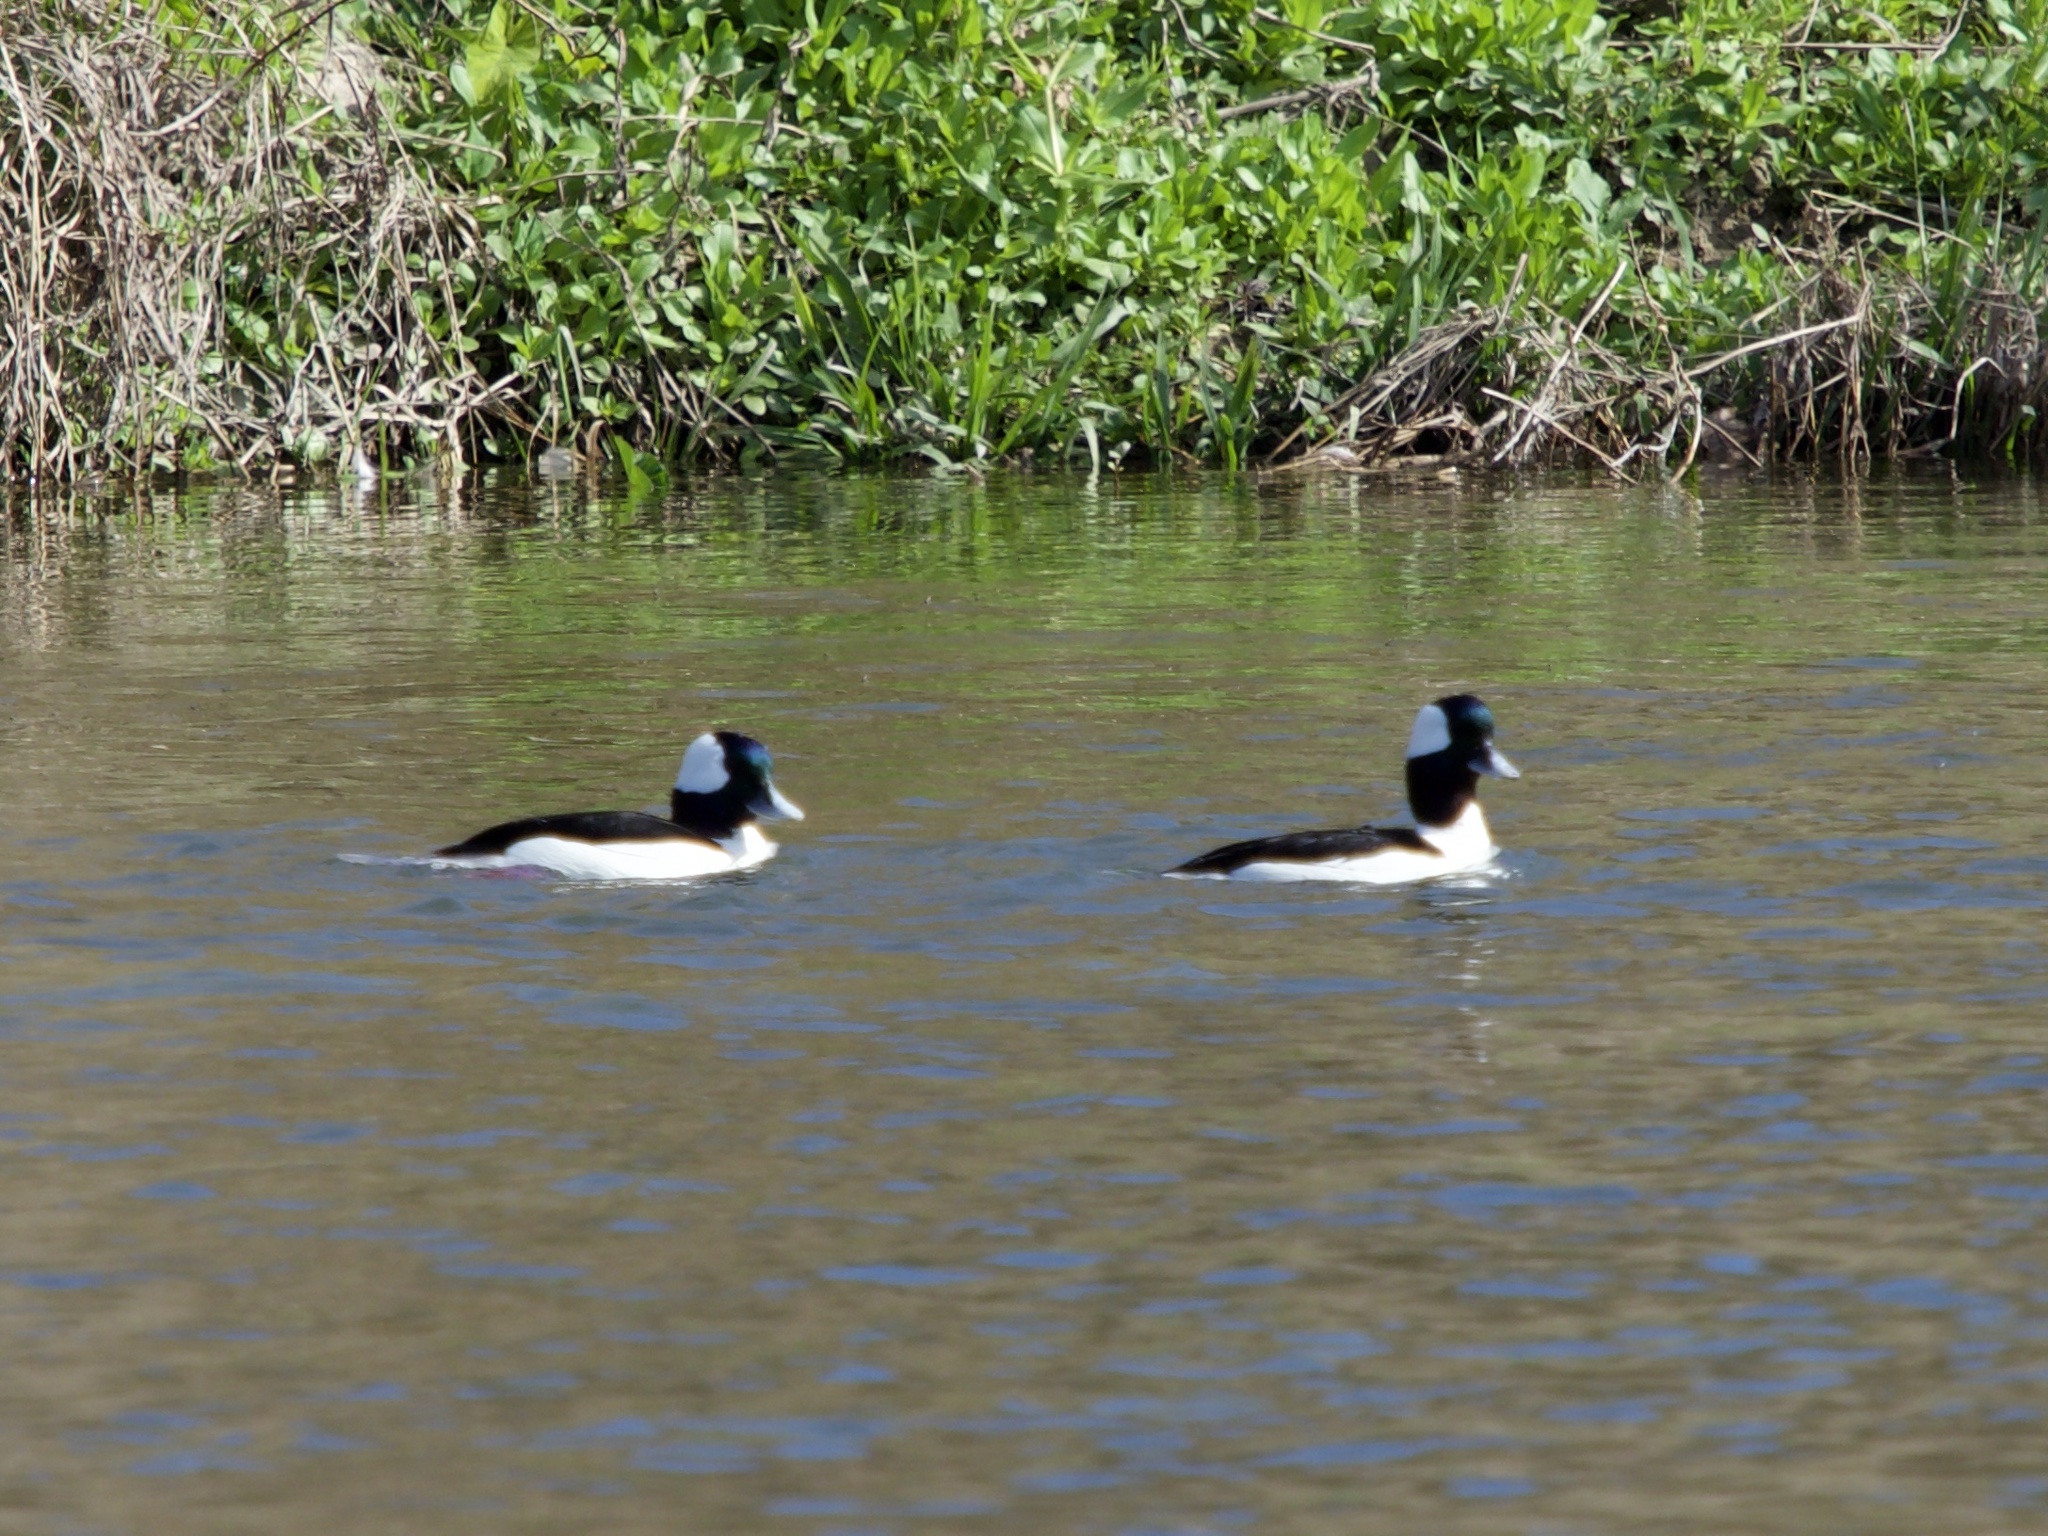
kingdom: Animalia
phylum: Chordata
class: Aves
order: Anseriformes
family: Anatidae
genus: Bucephala
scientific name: Bucephala albeola
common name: Bufflehead
